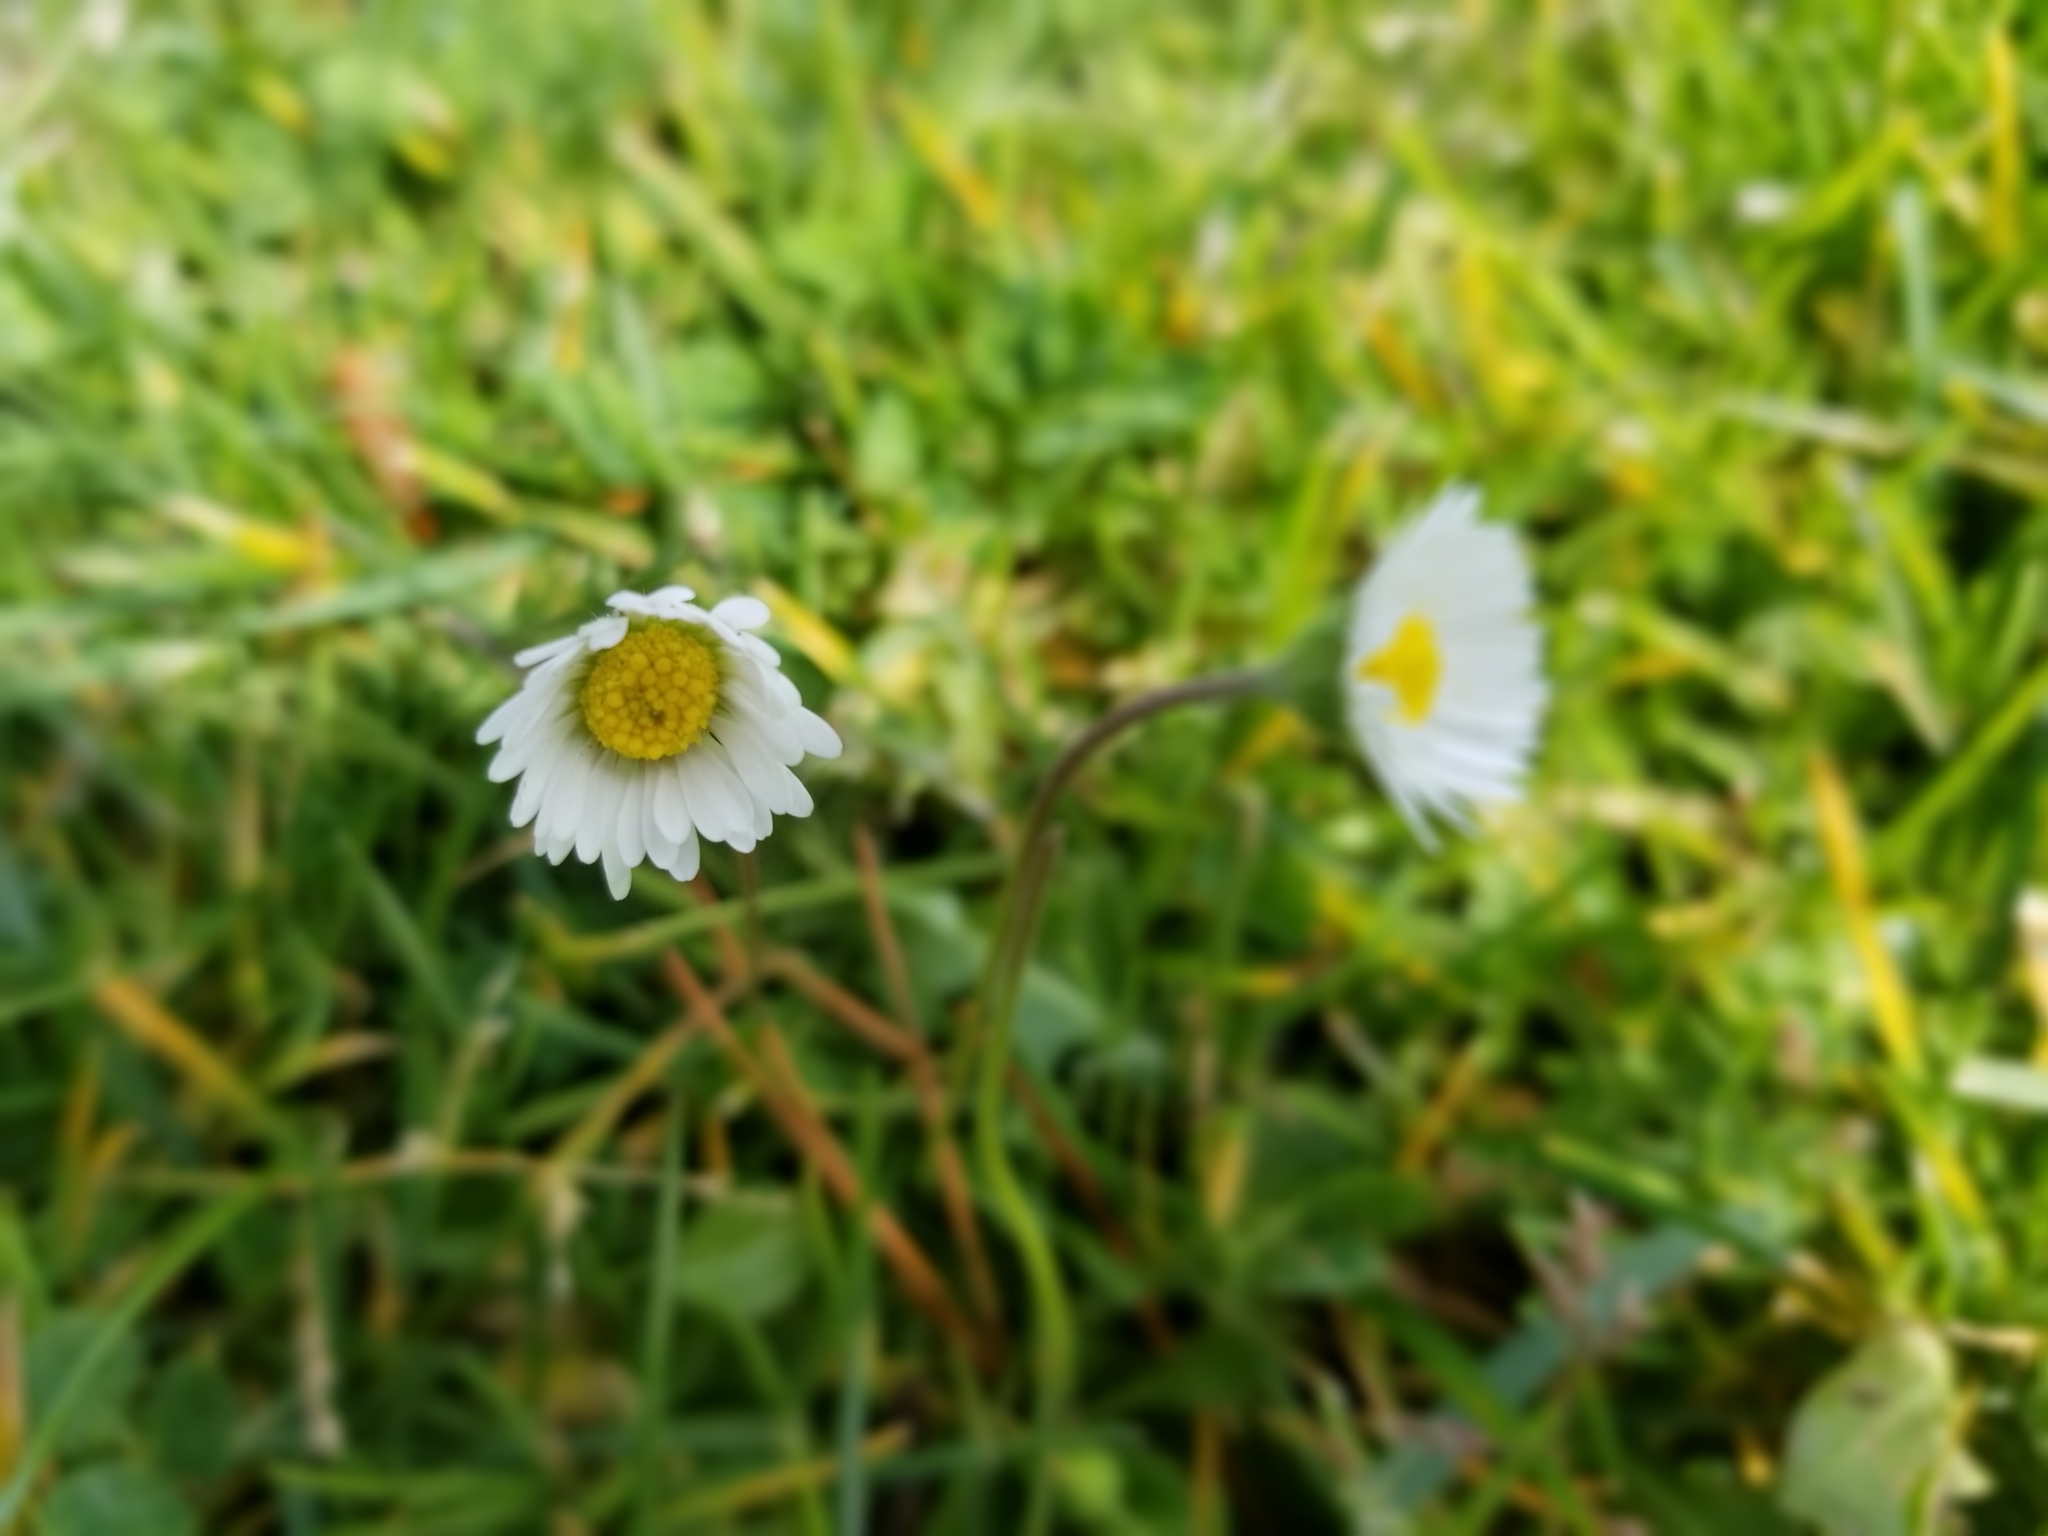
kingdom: Plantae
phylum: Tracheophyta
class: Magnoliopsida
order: Asterales
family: Asteraceae
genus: Bellis
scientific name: Bellis perennis
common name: Lawndaisy
